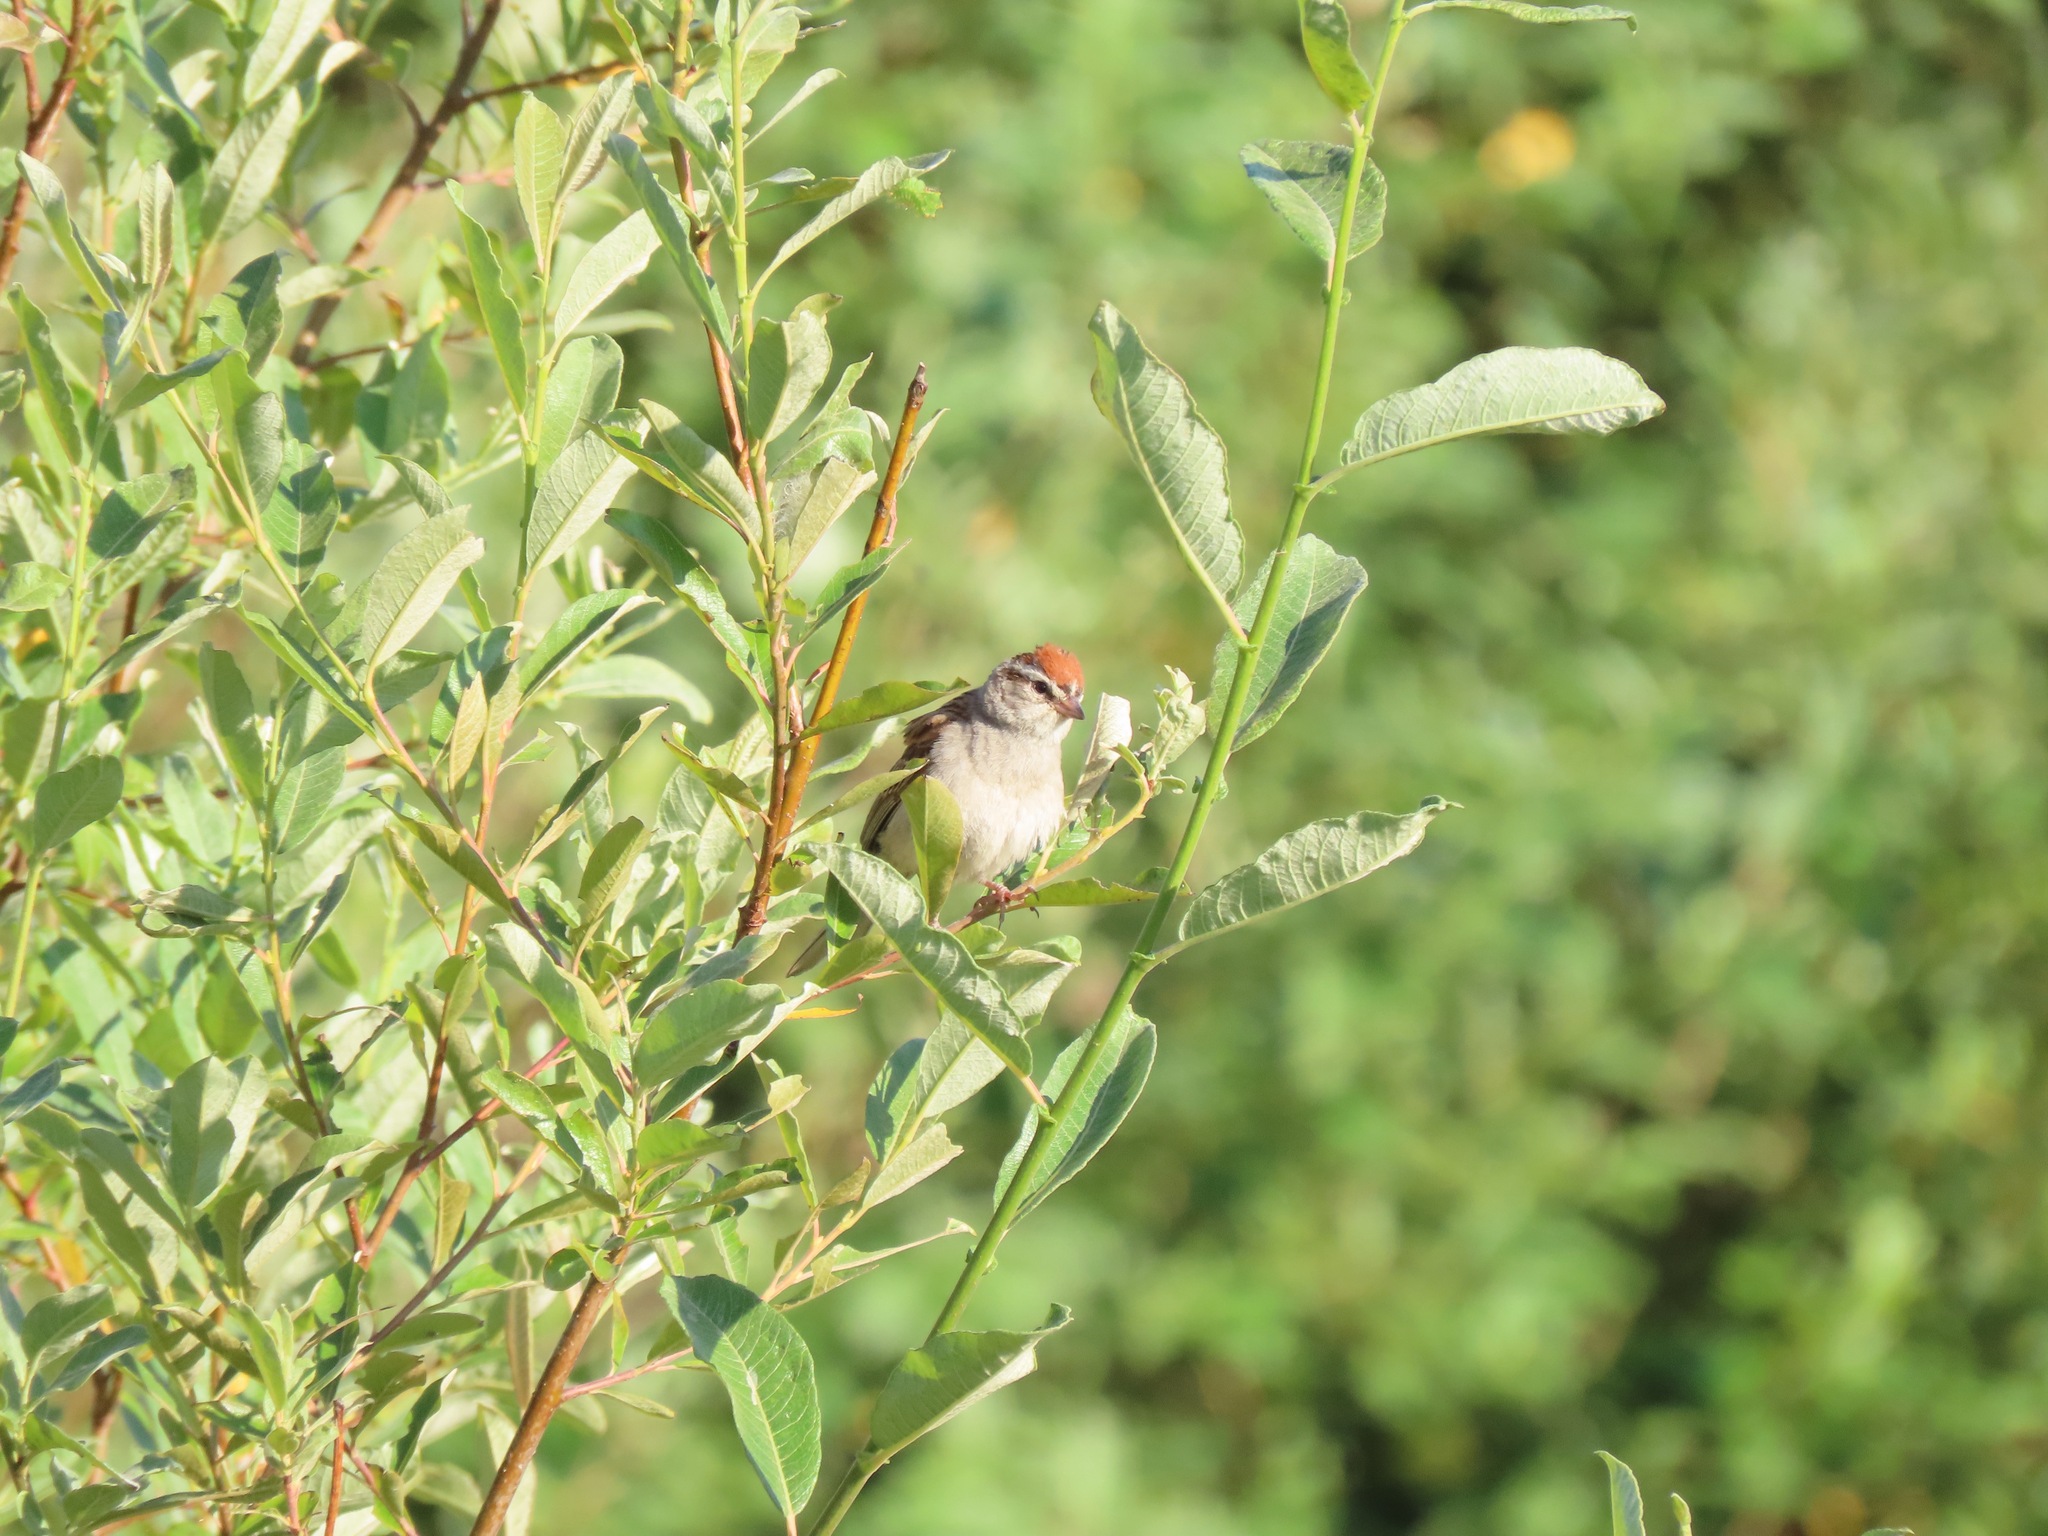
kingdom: Animalia
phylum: Chordata
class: Aves
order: Passeriformes
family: Passerellidae
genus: Spizella
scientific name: Spizella passerina
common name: Chipping sparrow
